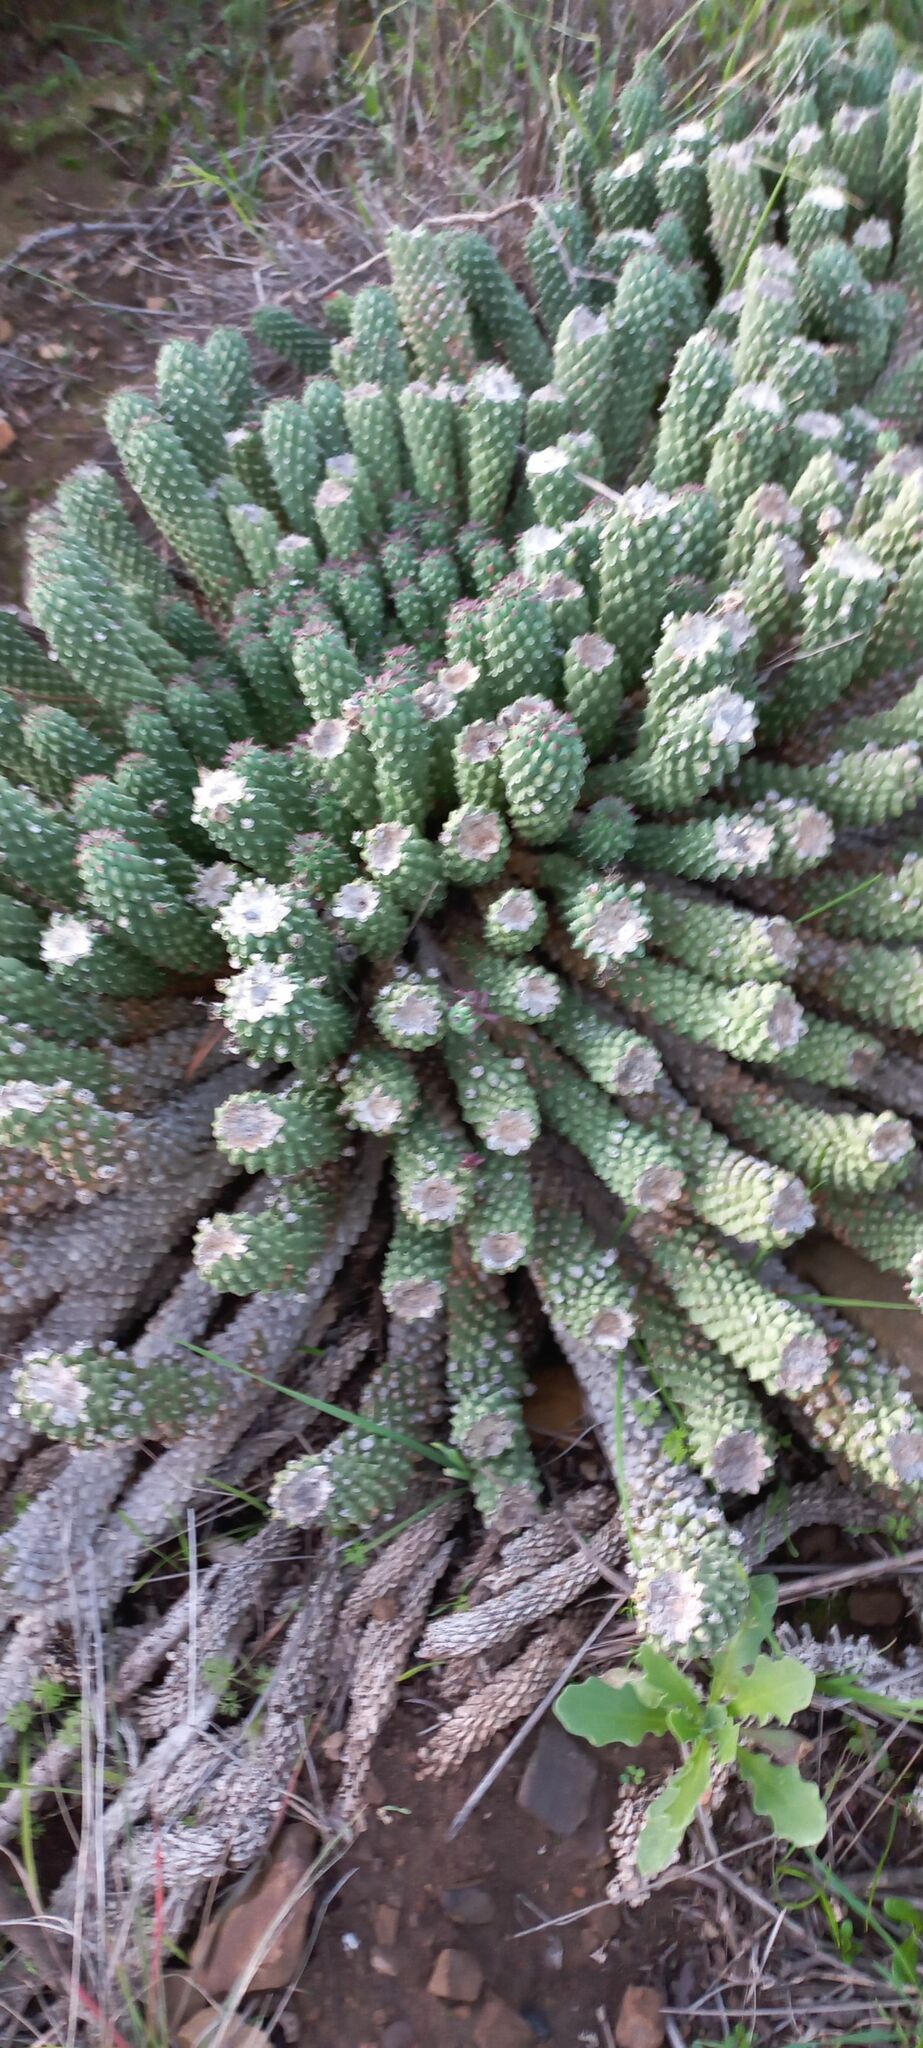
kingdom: Plantae
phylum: Tracheophyta
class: Magnoliopsida
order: Malpighiales
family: Euphorbiaceae
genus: Euphorbia
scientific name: Euphorbia caput-medusae
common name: Medusa's-head
